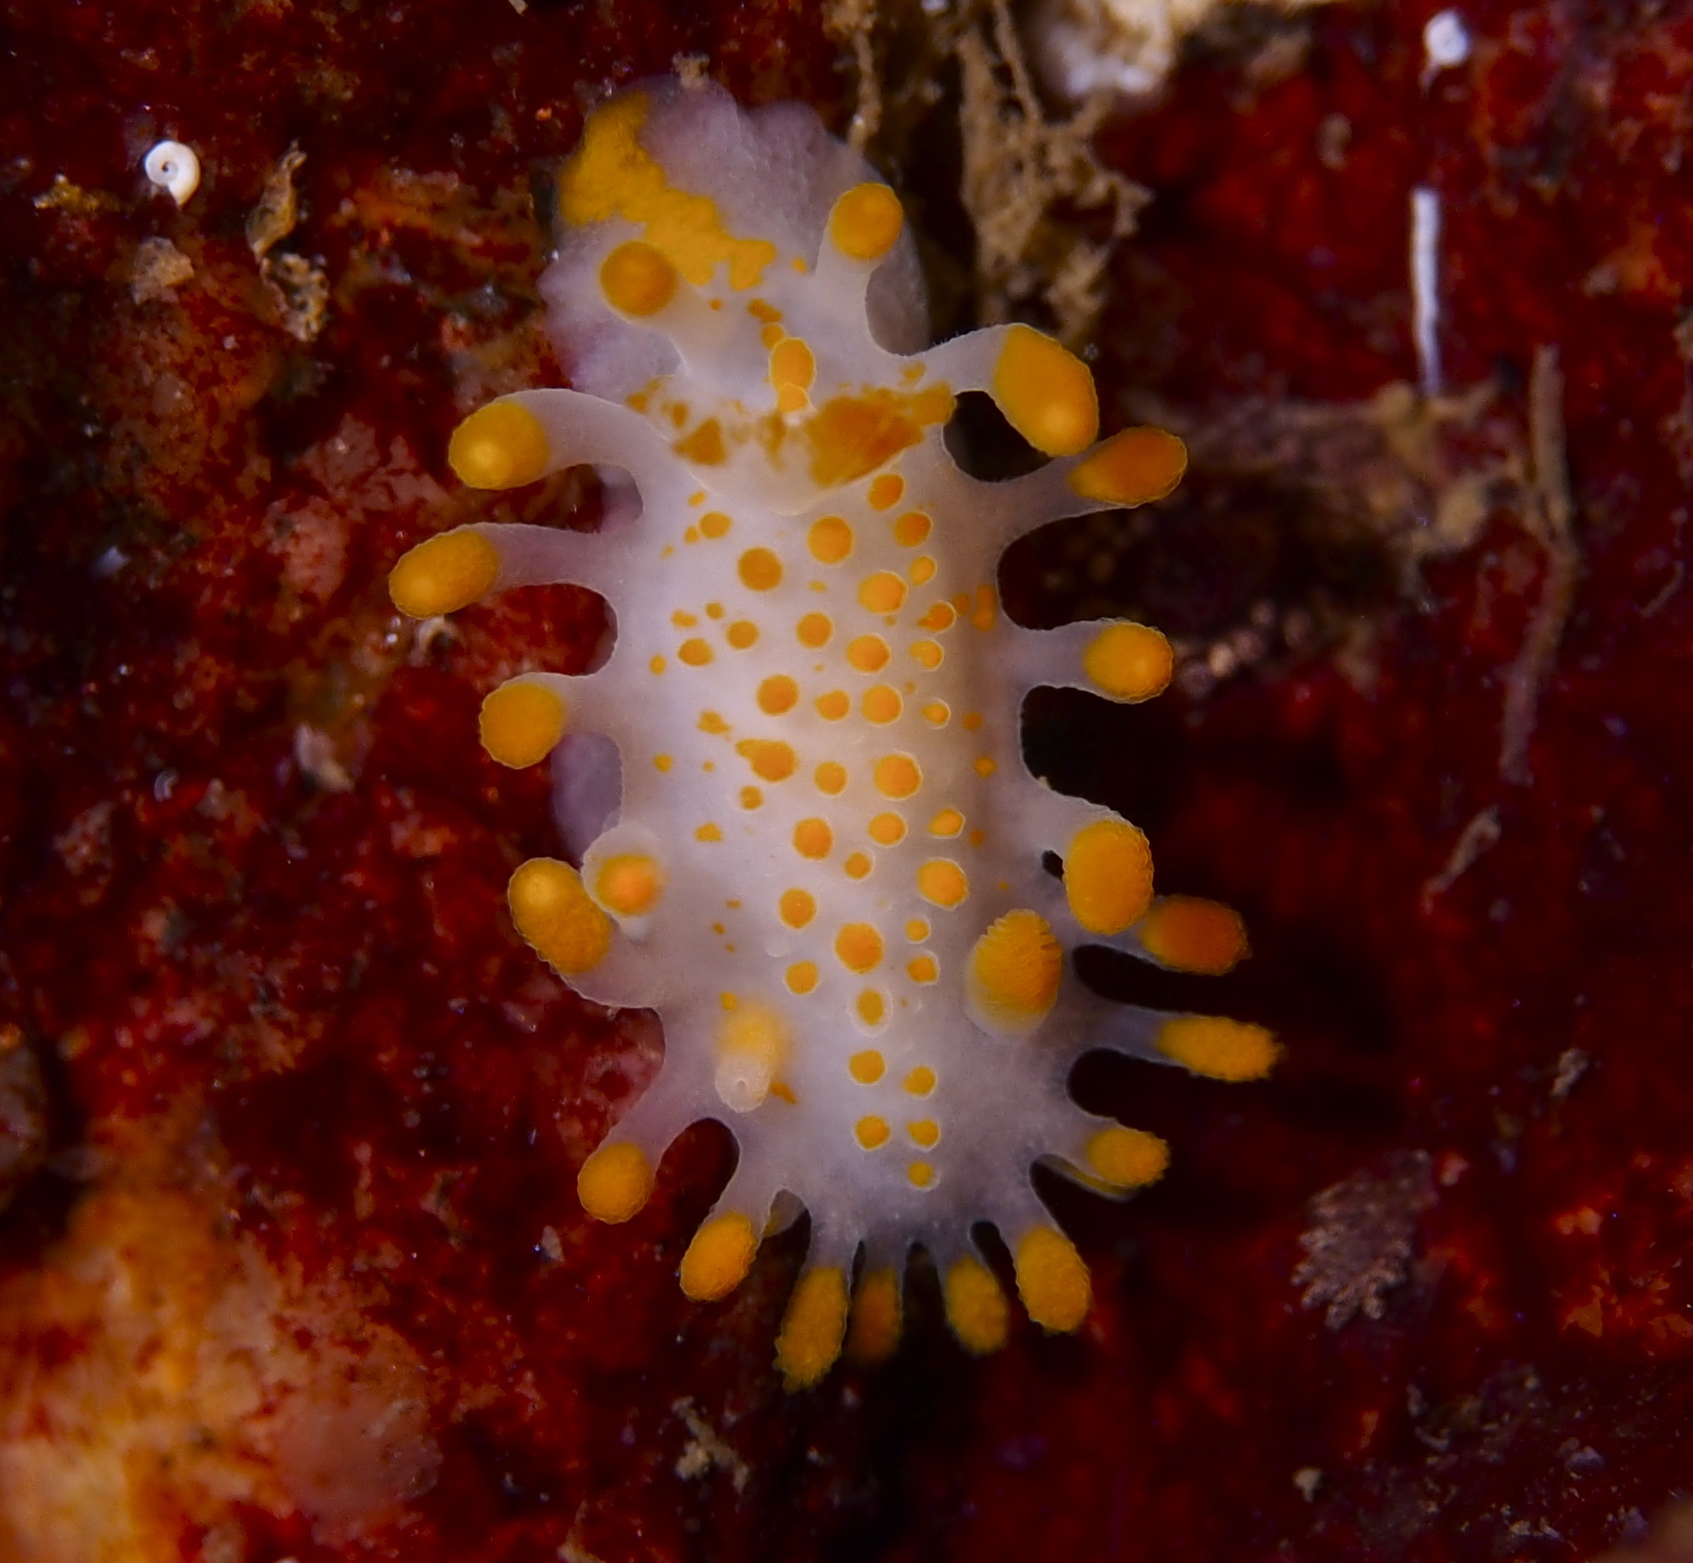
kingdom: Animalia
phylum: Mollusca
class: Gastropoda
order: Nudibranchia
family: Polyceridae
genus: Limacia
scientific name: Limacia clavigera
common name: Orange-clubbed sea slug
